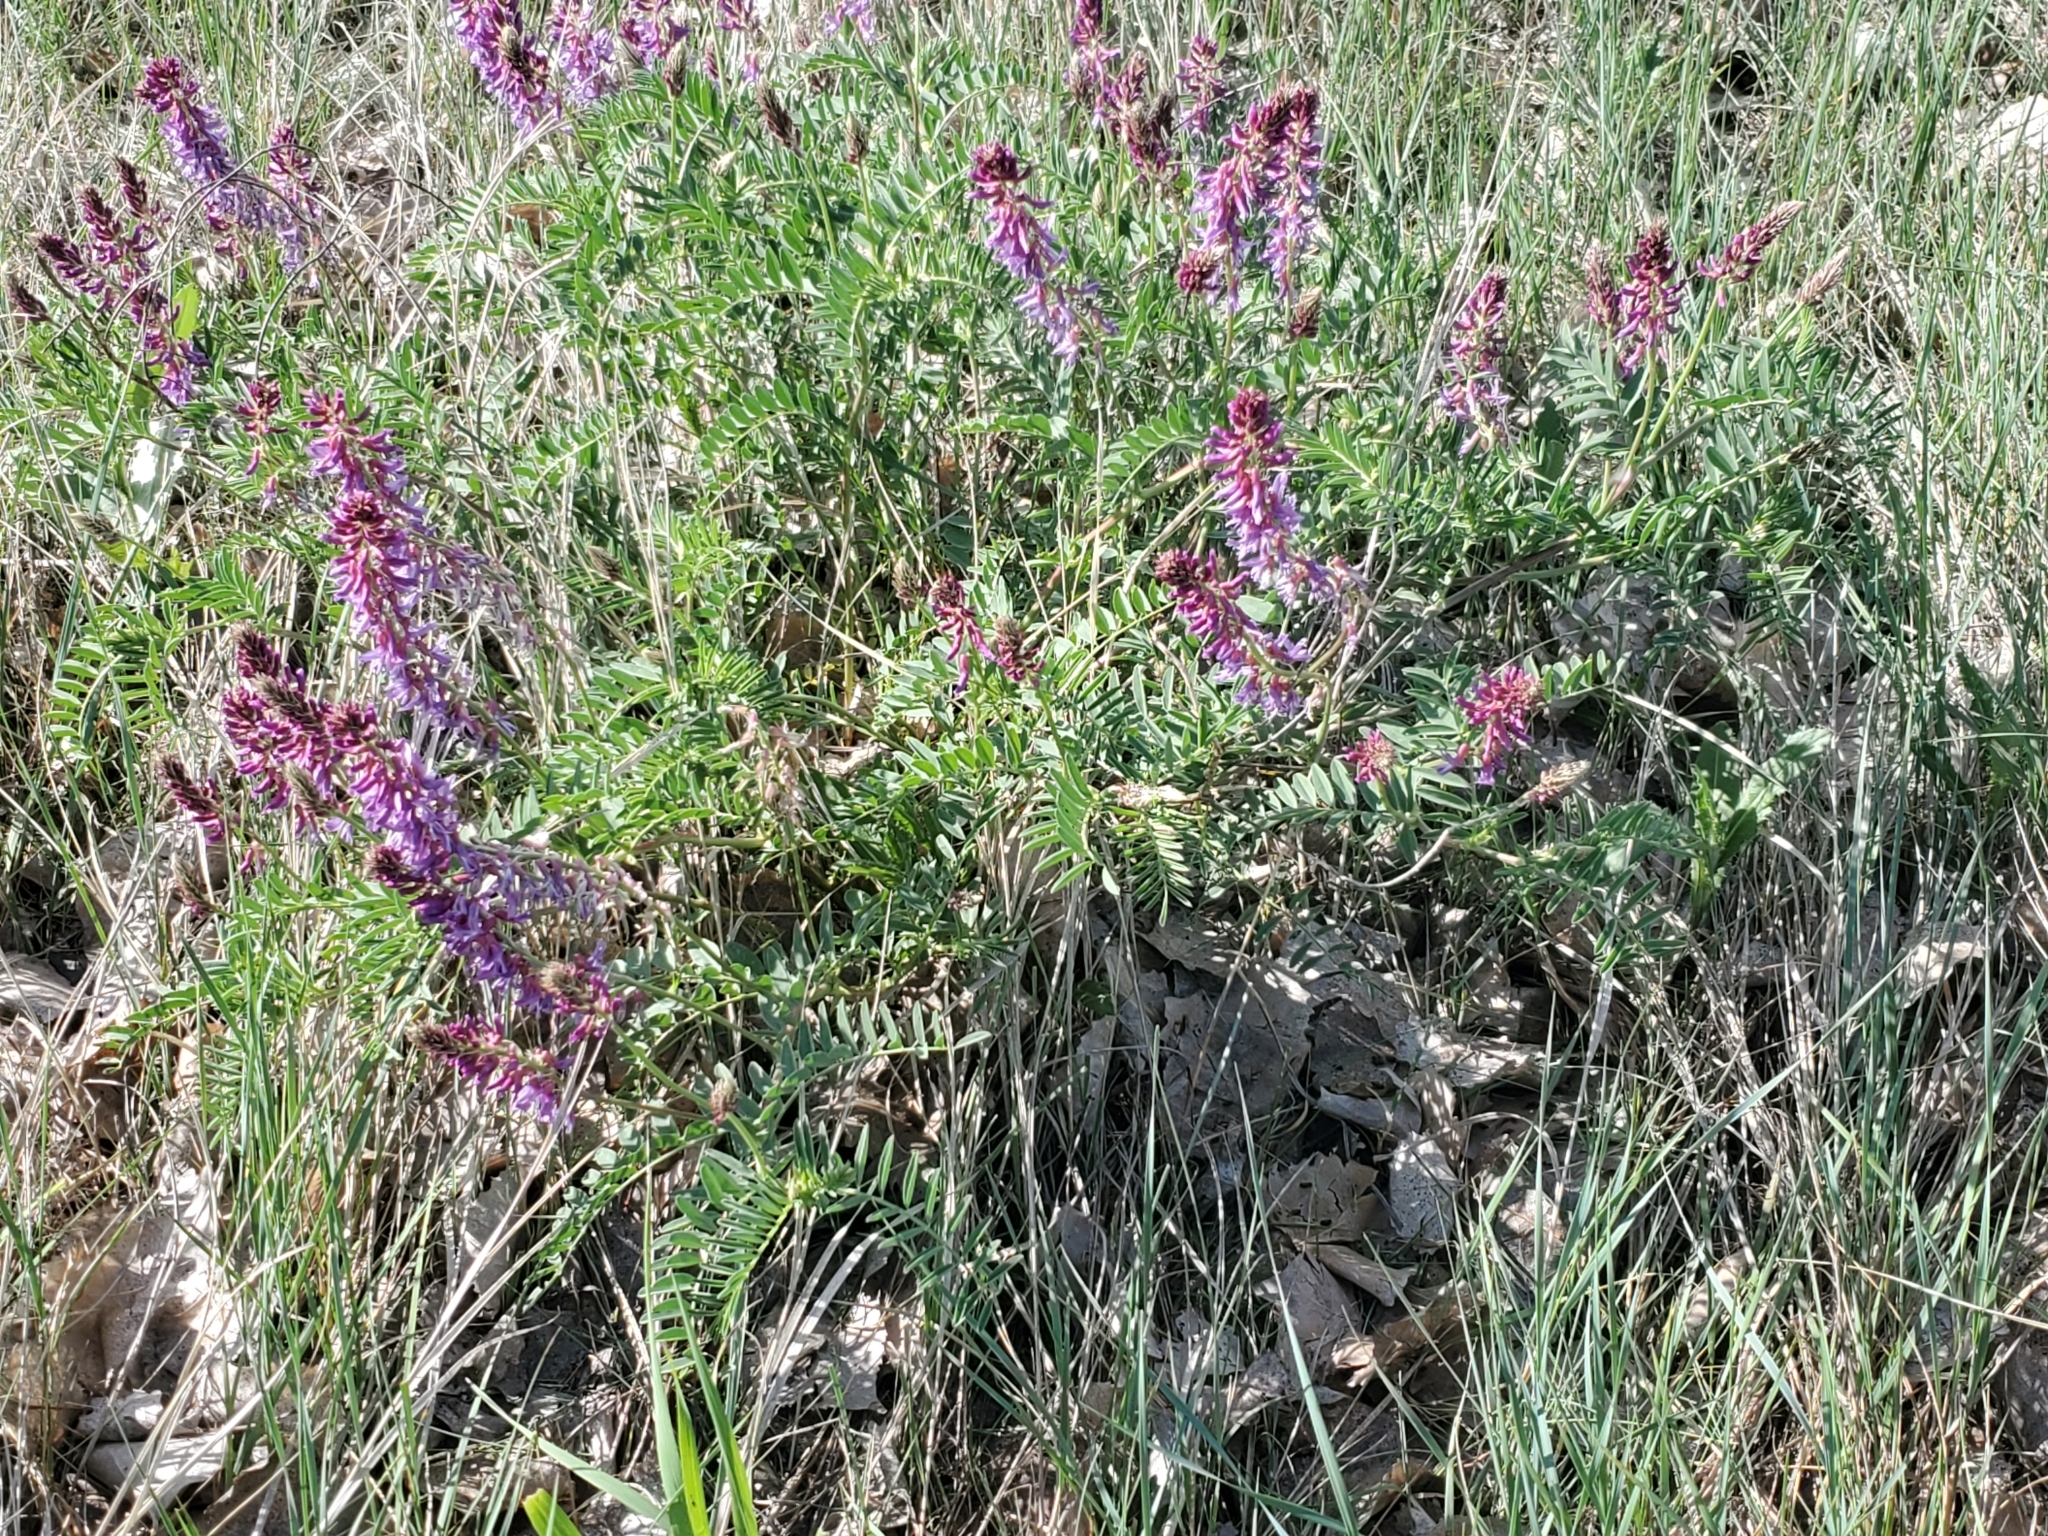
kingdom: Plantae
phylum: Tracheophyta
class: Magnoliopsida
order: Fabales
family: Fabaceae
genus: Astragalus
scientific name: Astragalus bisulcatus
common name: Two-groove milk-vetch
